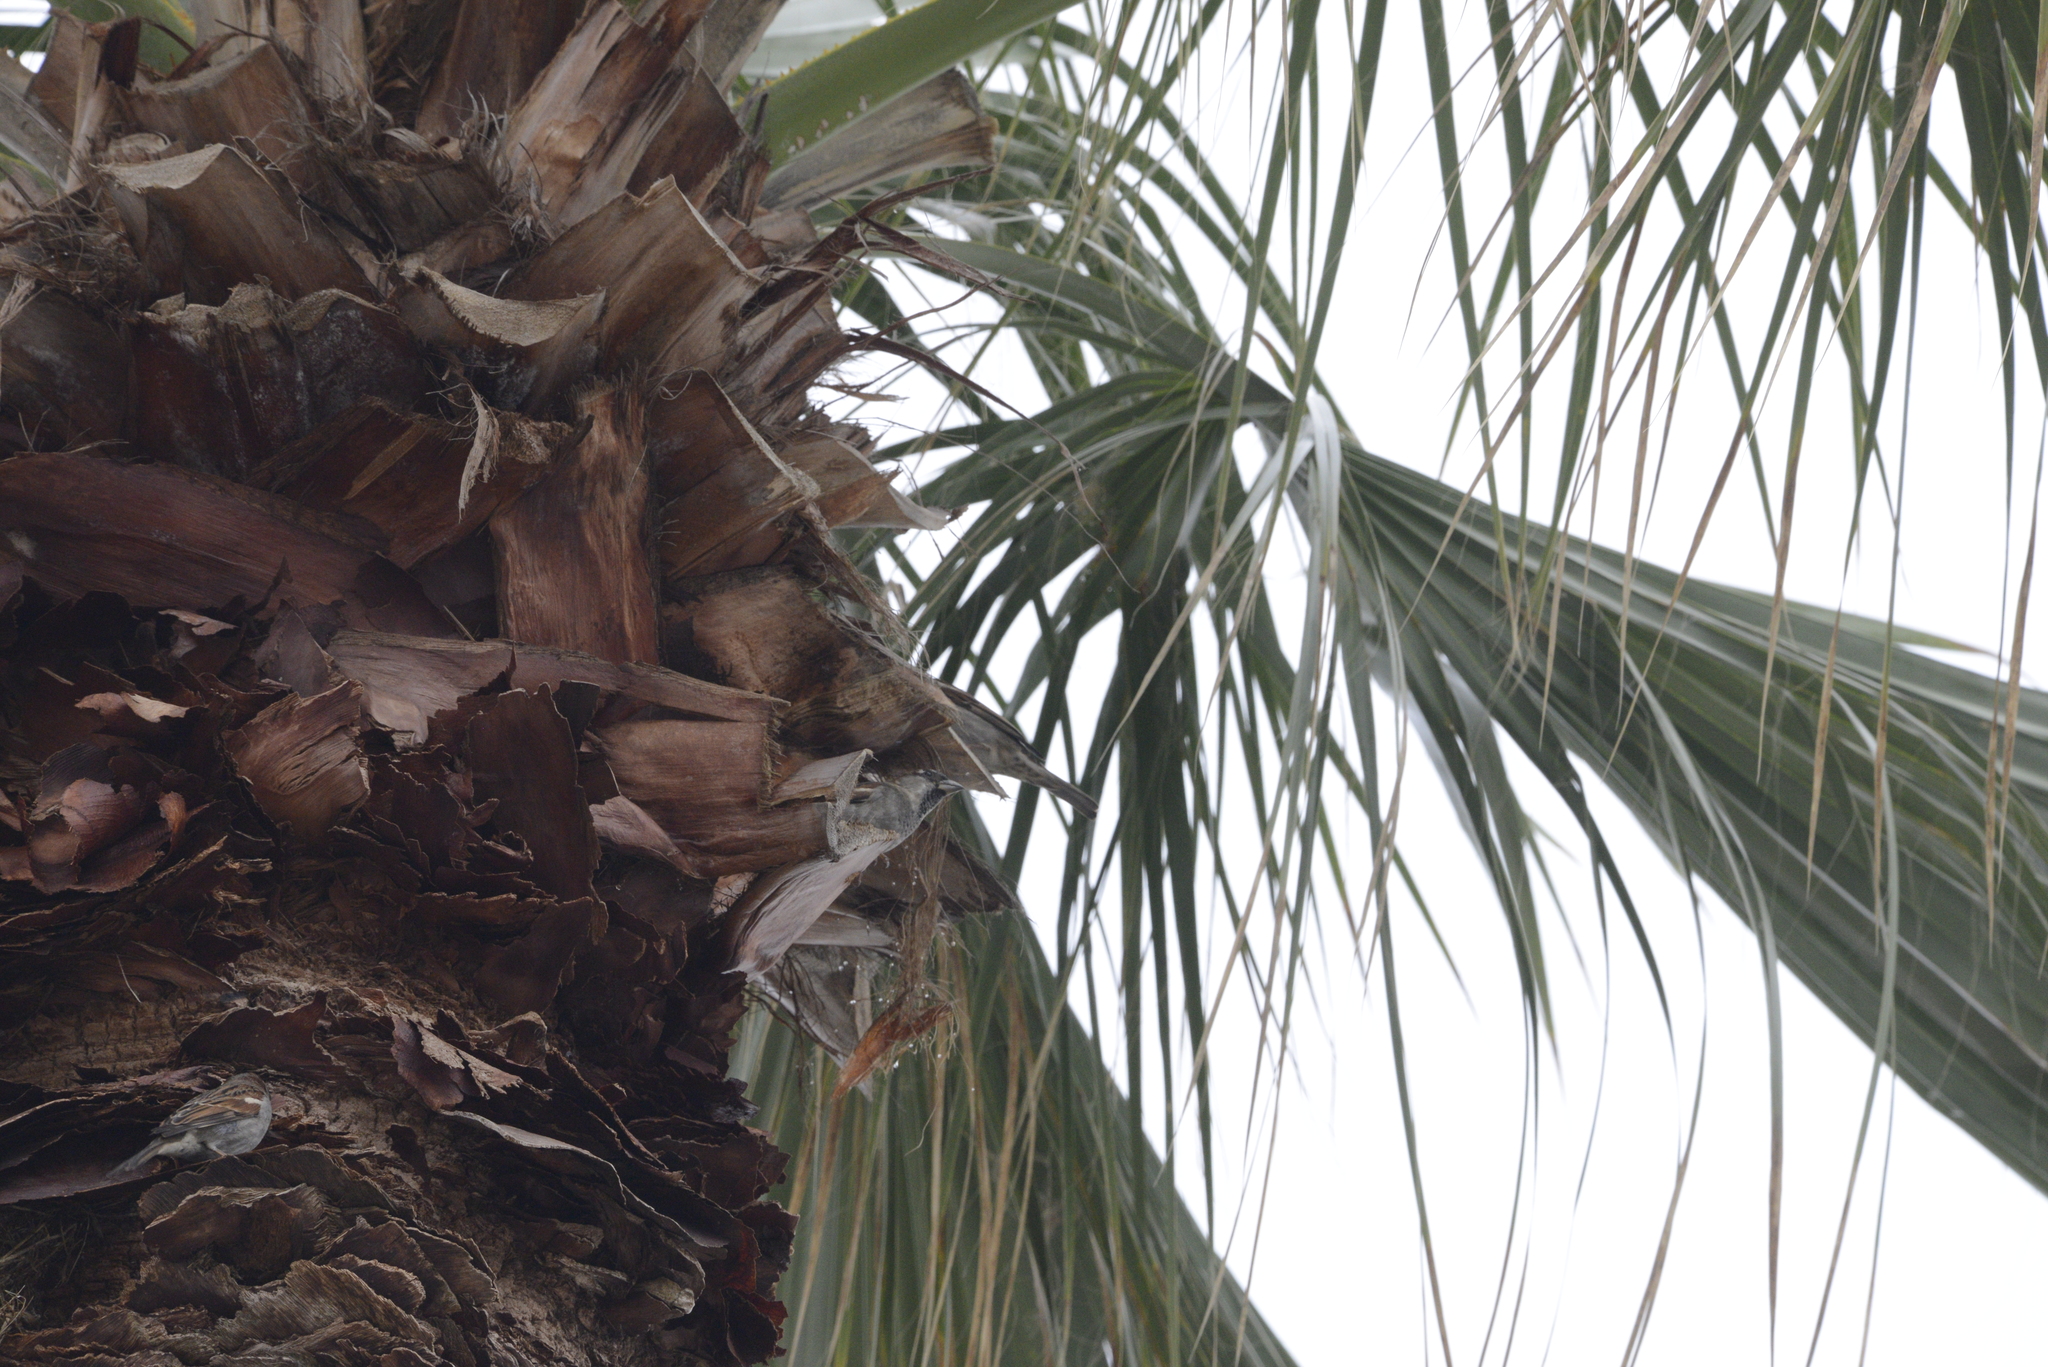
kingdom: Animalia
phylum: Chordata
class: Aves
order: Passeriformes
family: Passeridae
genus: Passer
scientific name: Passer domesticus
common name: House sparrow
